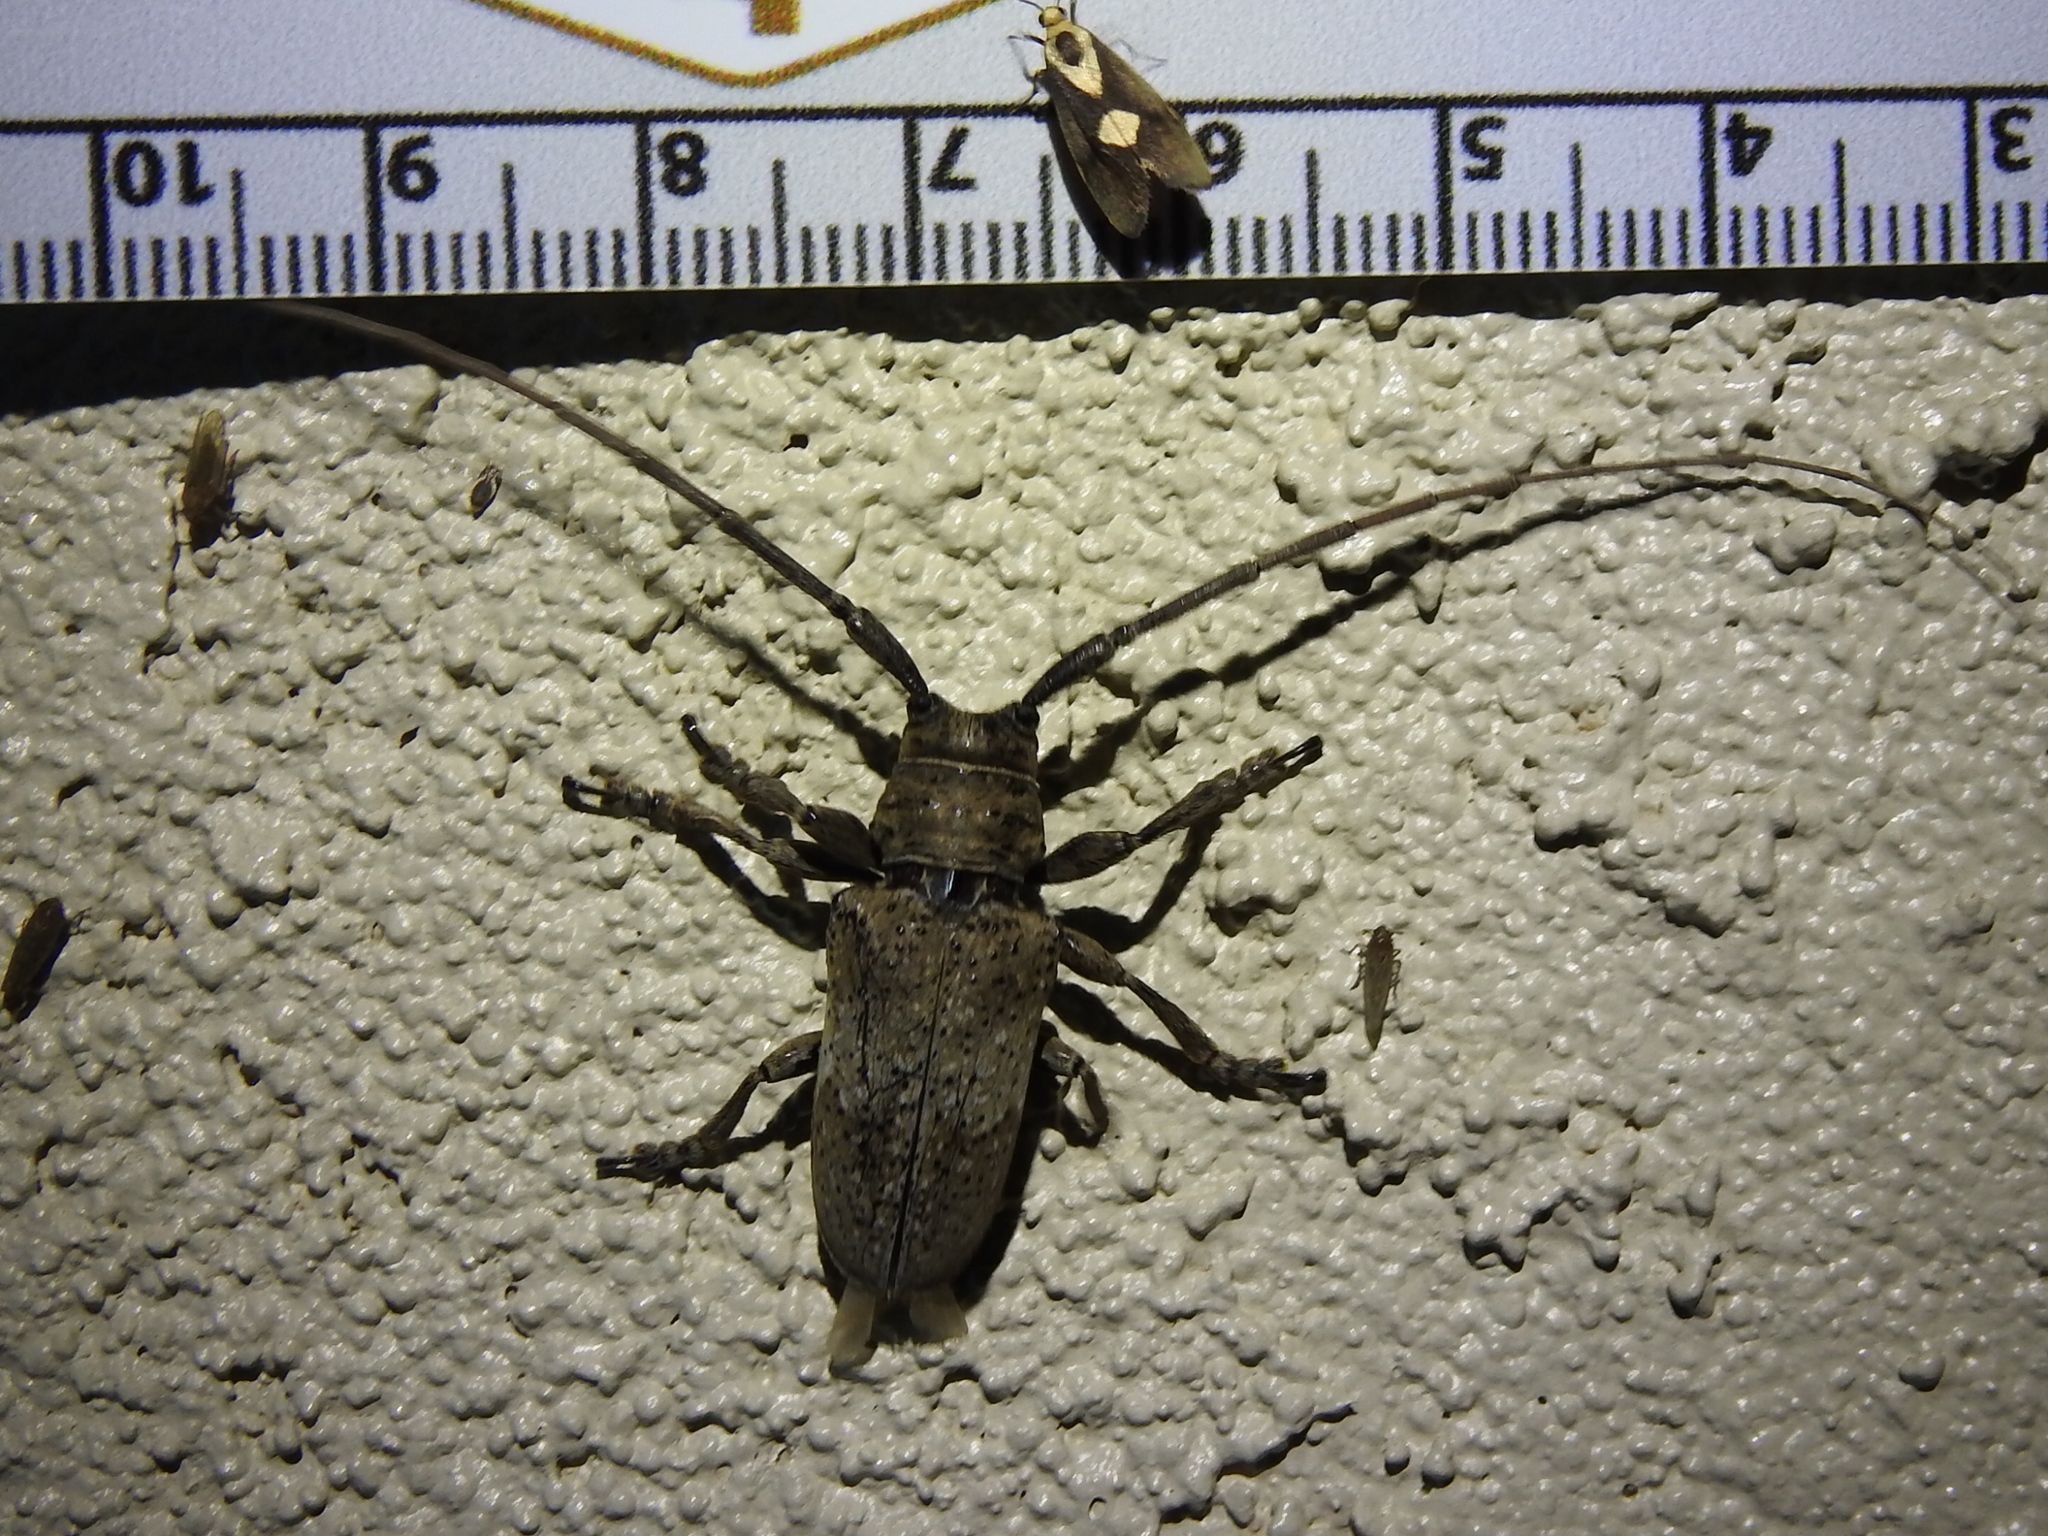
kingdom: Animalia
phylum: Arthropoda
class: Insecta
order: Coleoptera
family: Cerambycidae
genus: Oncideres
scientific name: Oncideres pustulata
